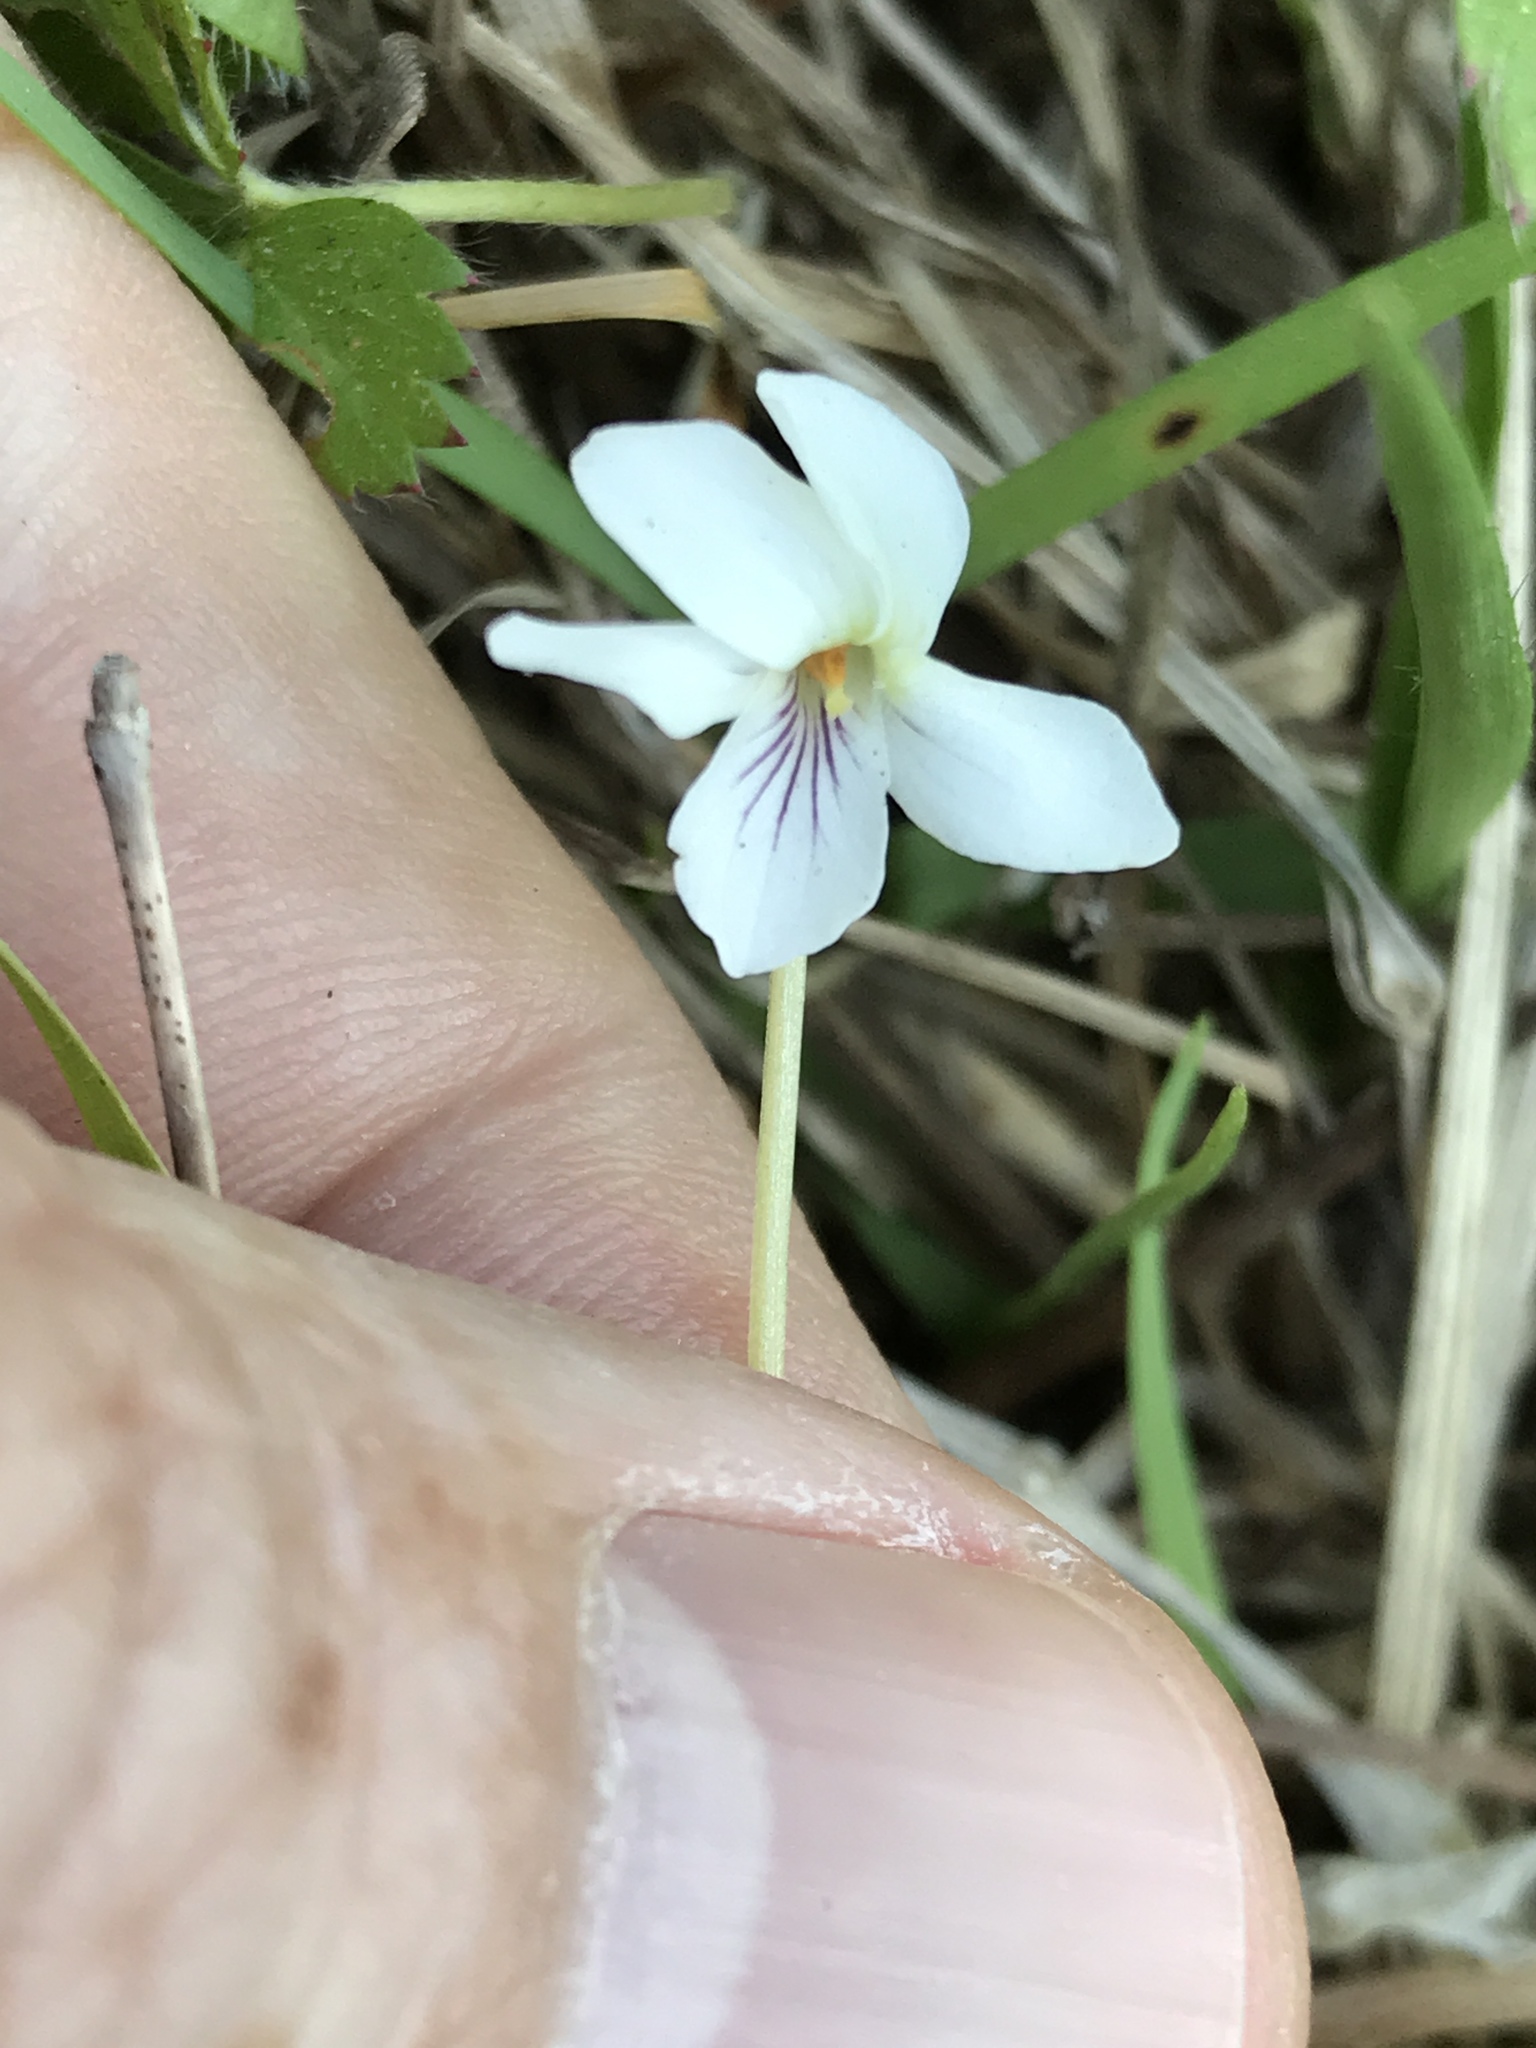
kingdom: Plantae
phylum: Tracheophyta
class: Magnoliopsida
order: Malpighiales
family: Violaceae
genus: Viola
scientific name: Viola primulifolia
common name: Primrose-leaf violet
